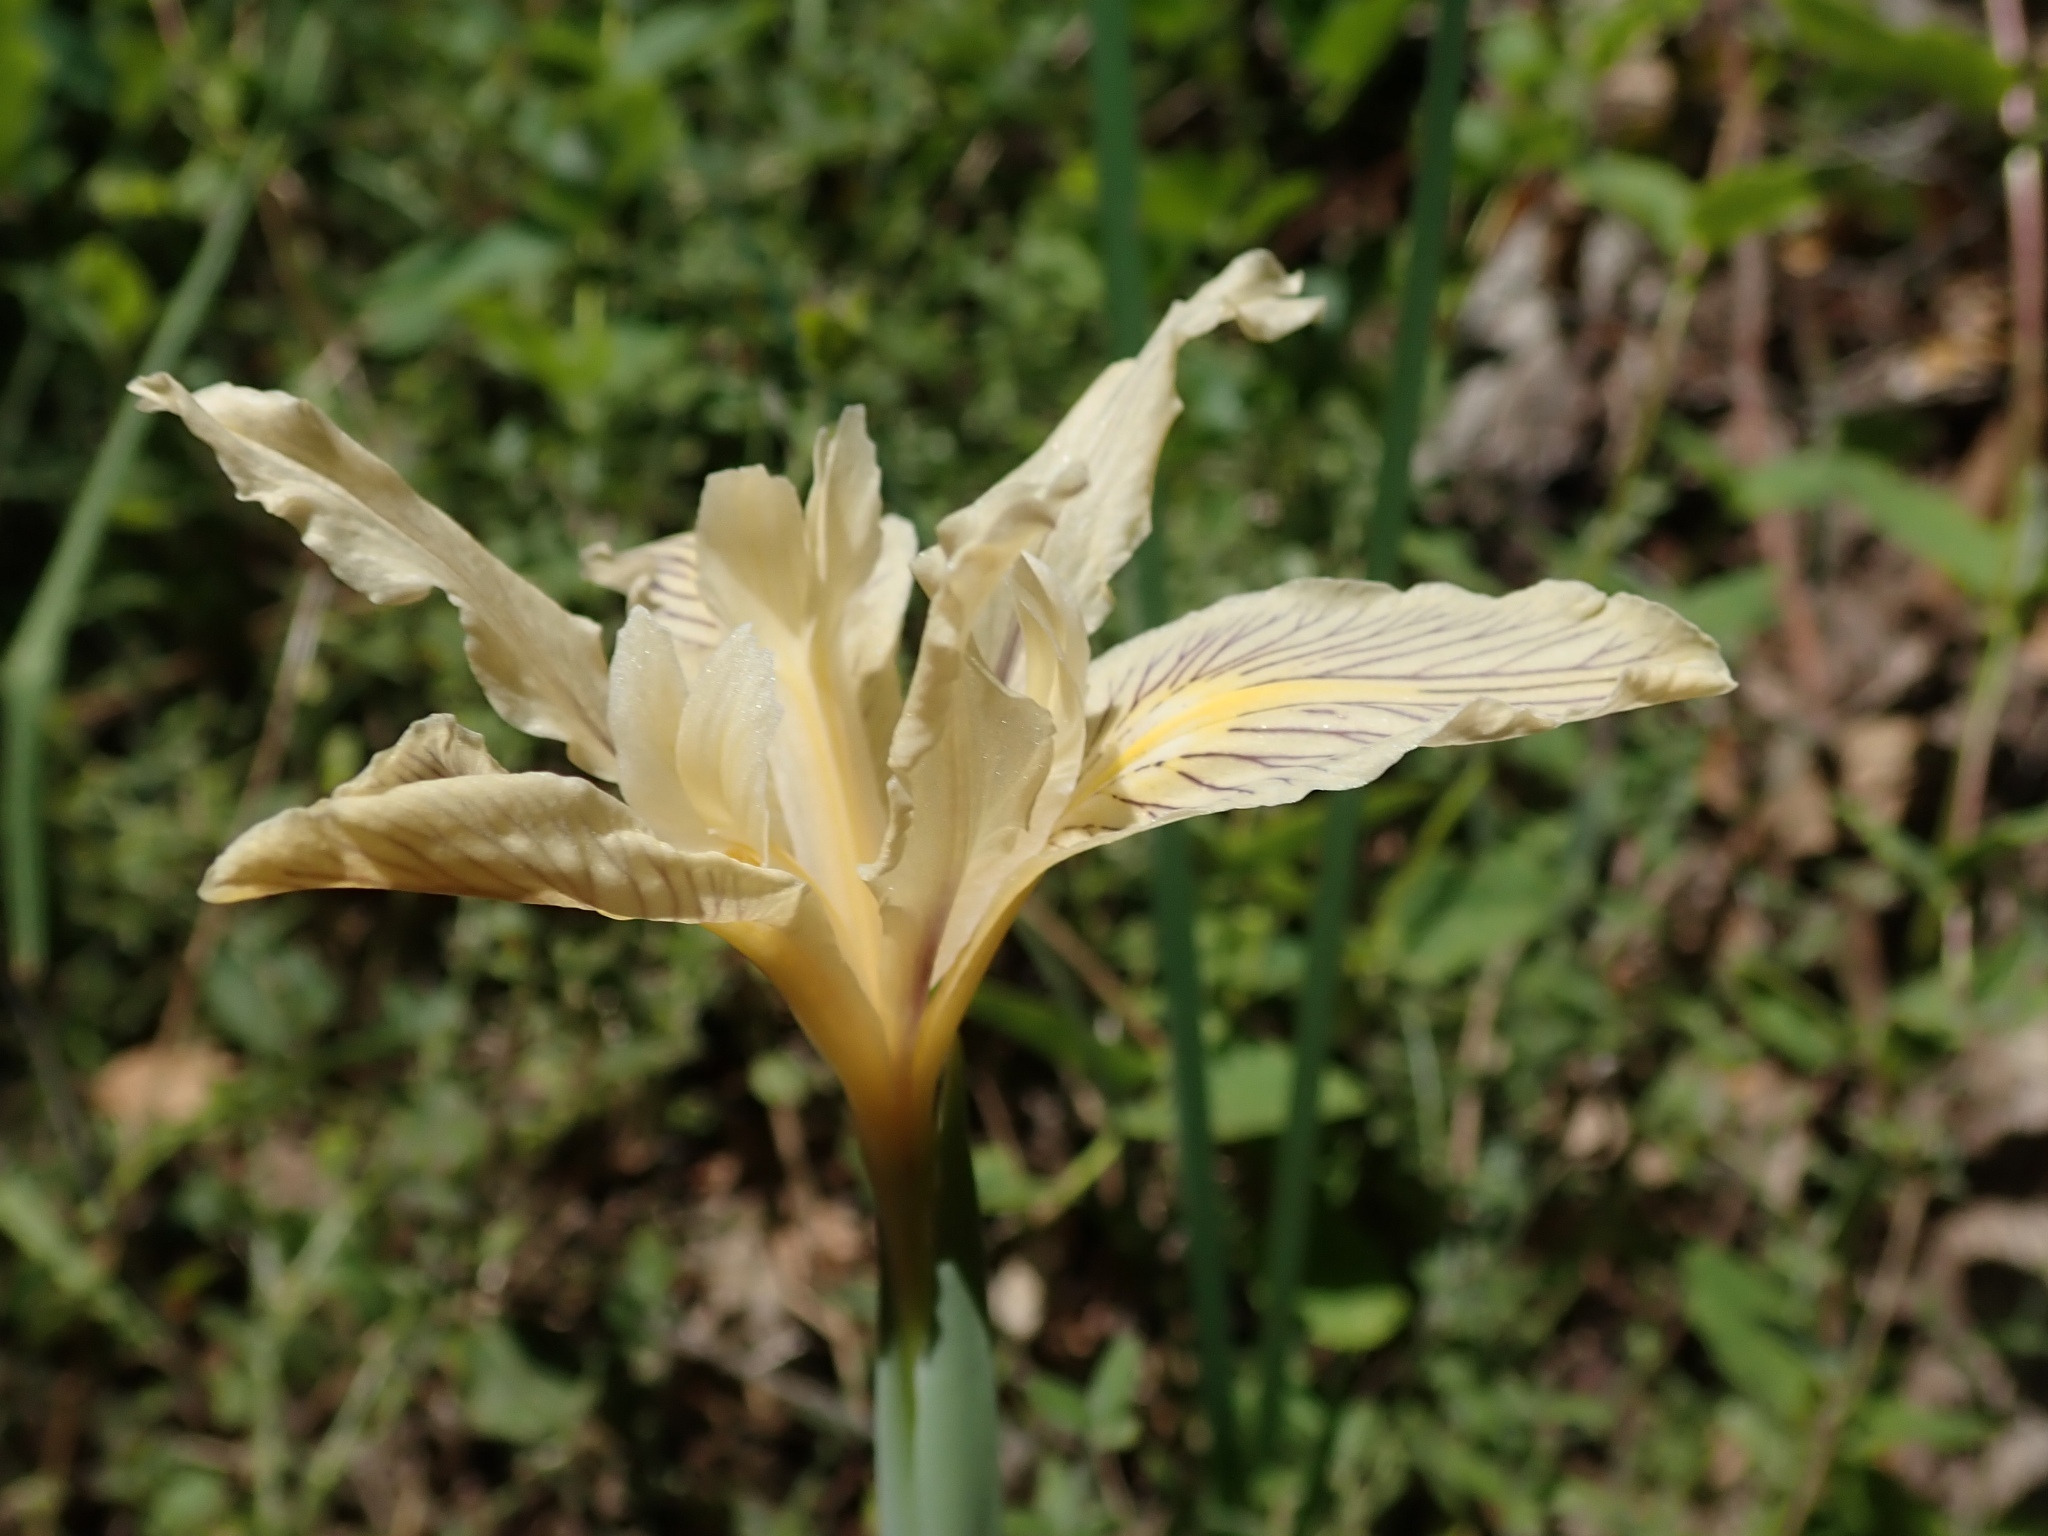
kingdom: Plantae
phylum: Tracheophyta
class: Liliopsida
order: Asparagales
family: Iridaceae
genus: Iris
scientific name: Iris fernaldii
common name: Fernald's iris
